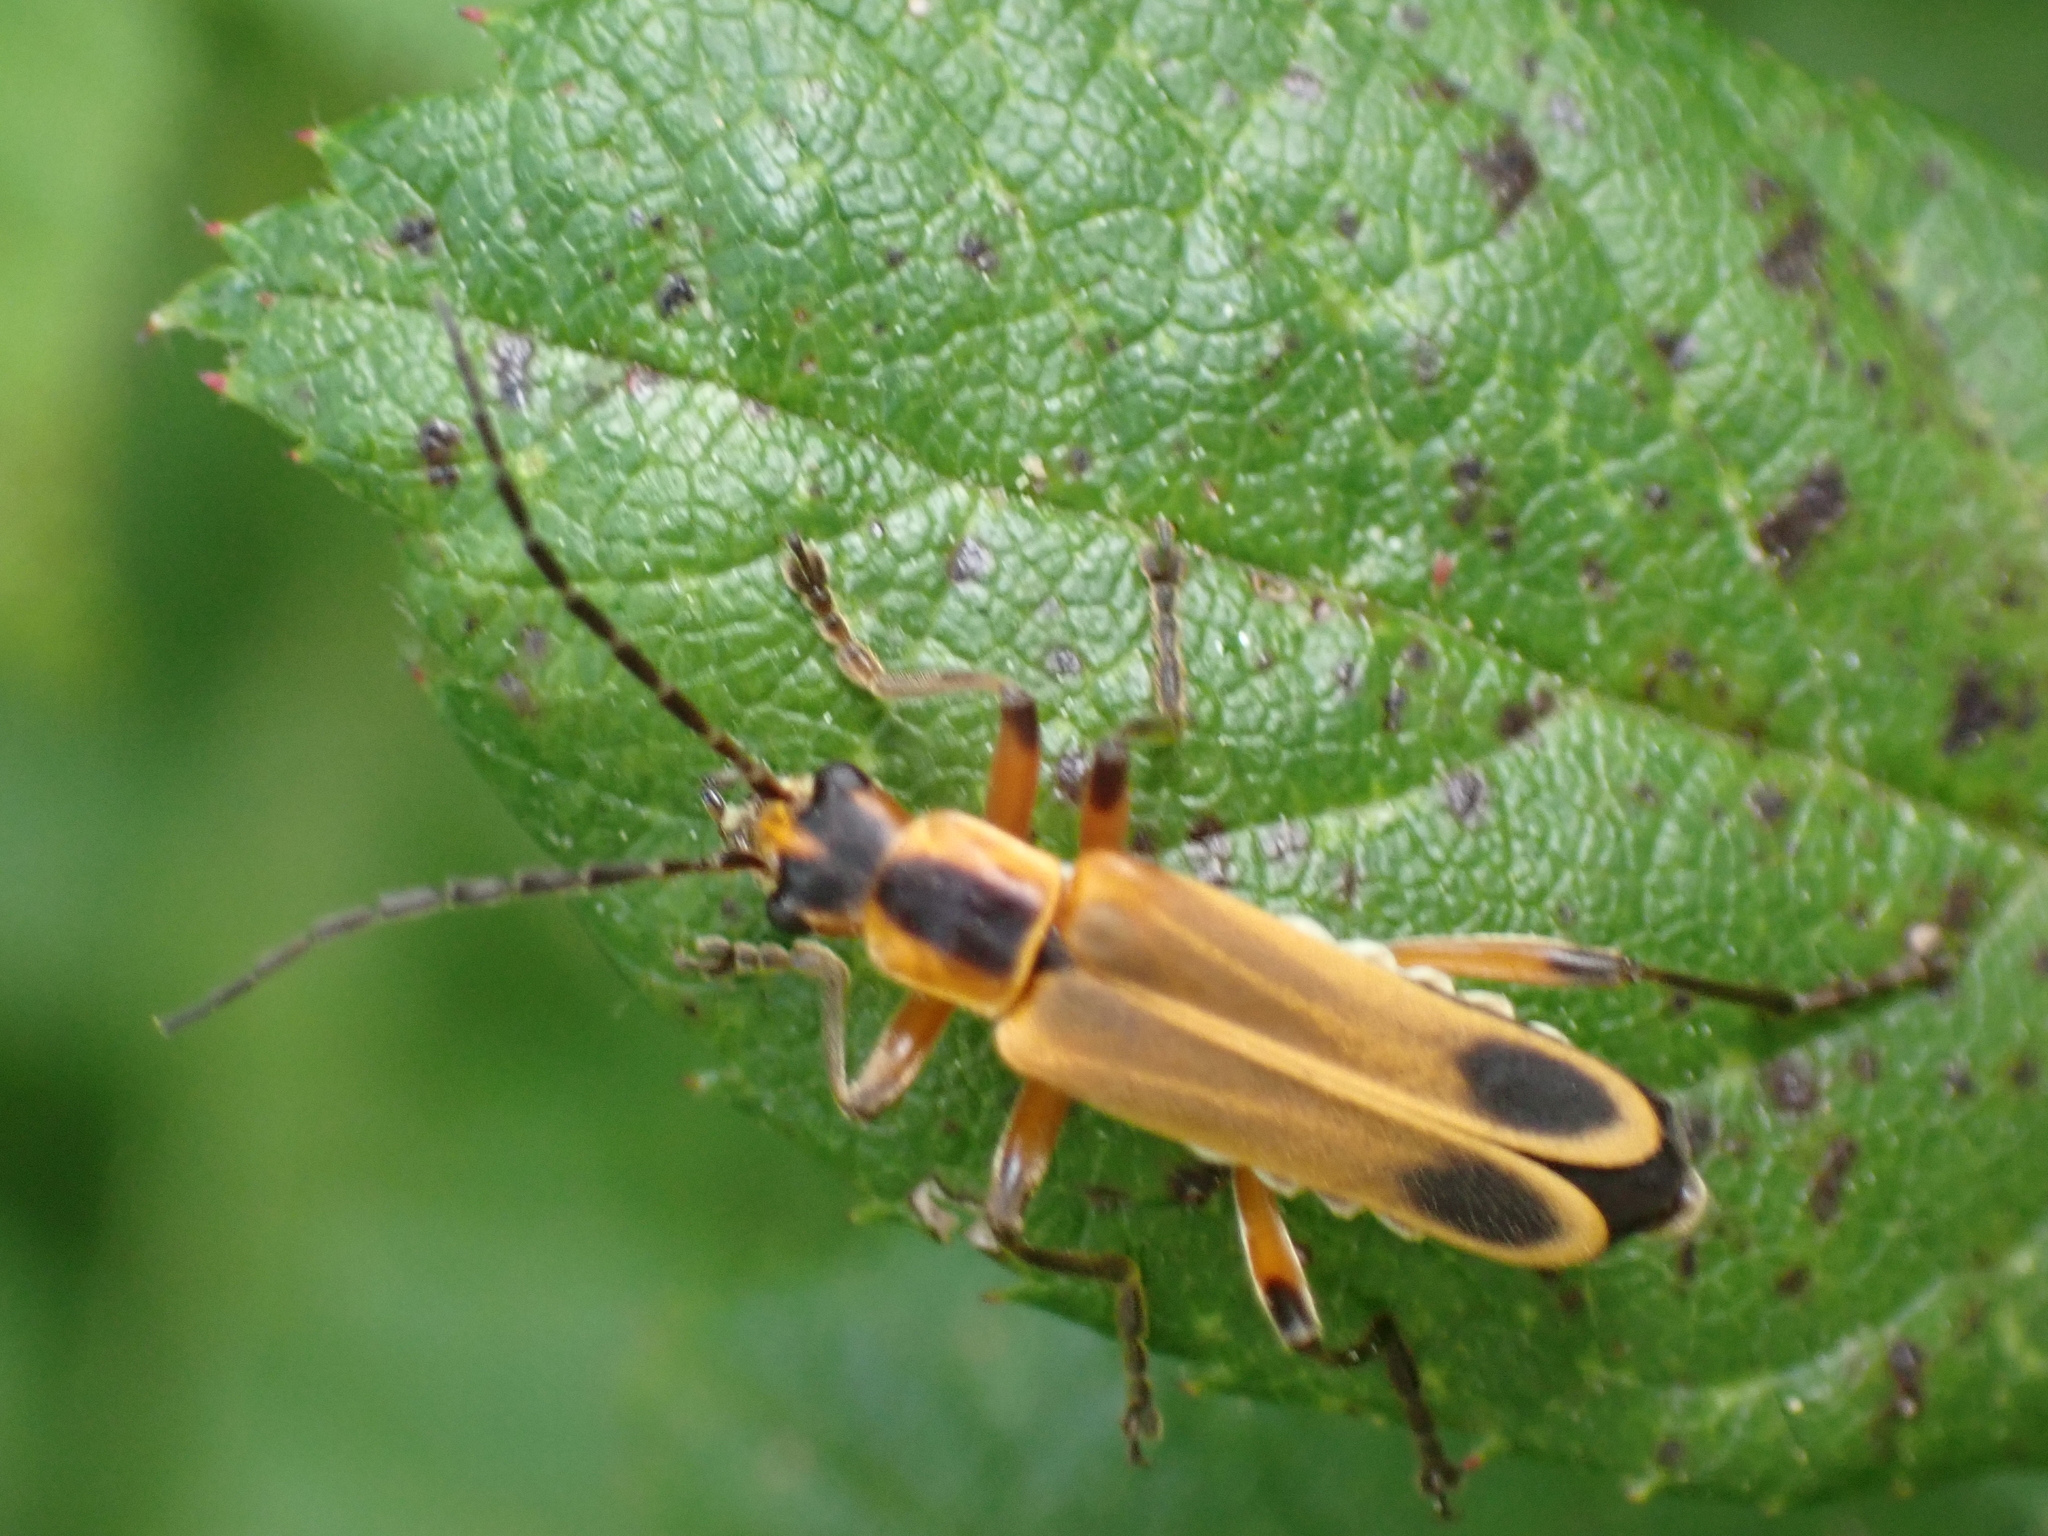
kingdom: Animalia
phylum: Arthropoda
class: Insecta
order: Coleoptera
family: Cantharidae
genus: Chauliognathus
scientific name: Chauliognathus marginatus
